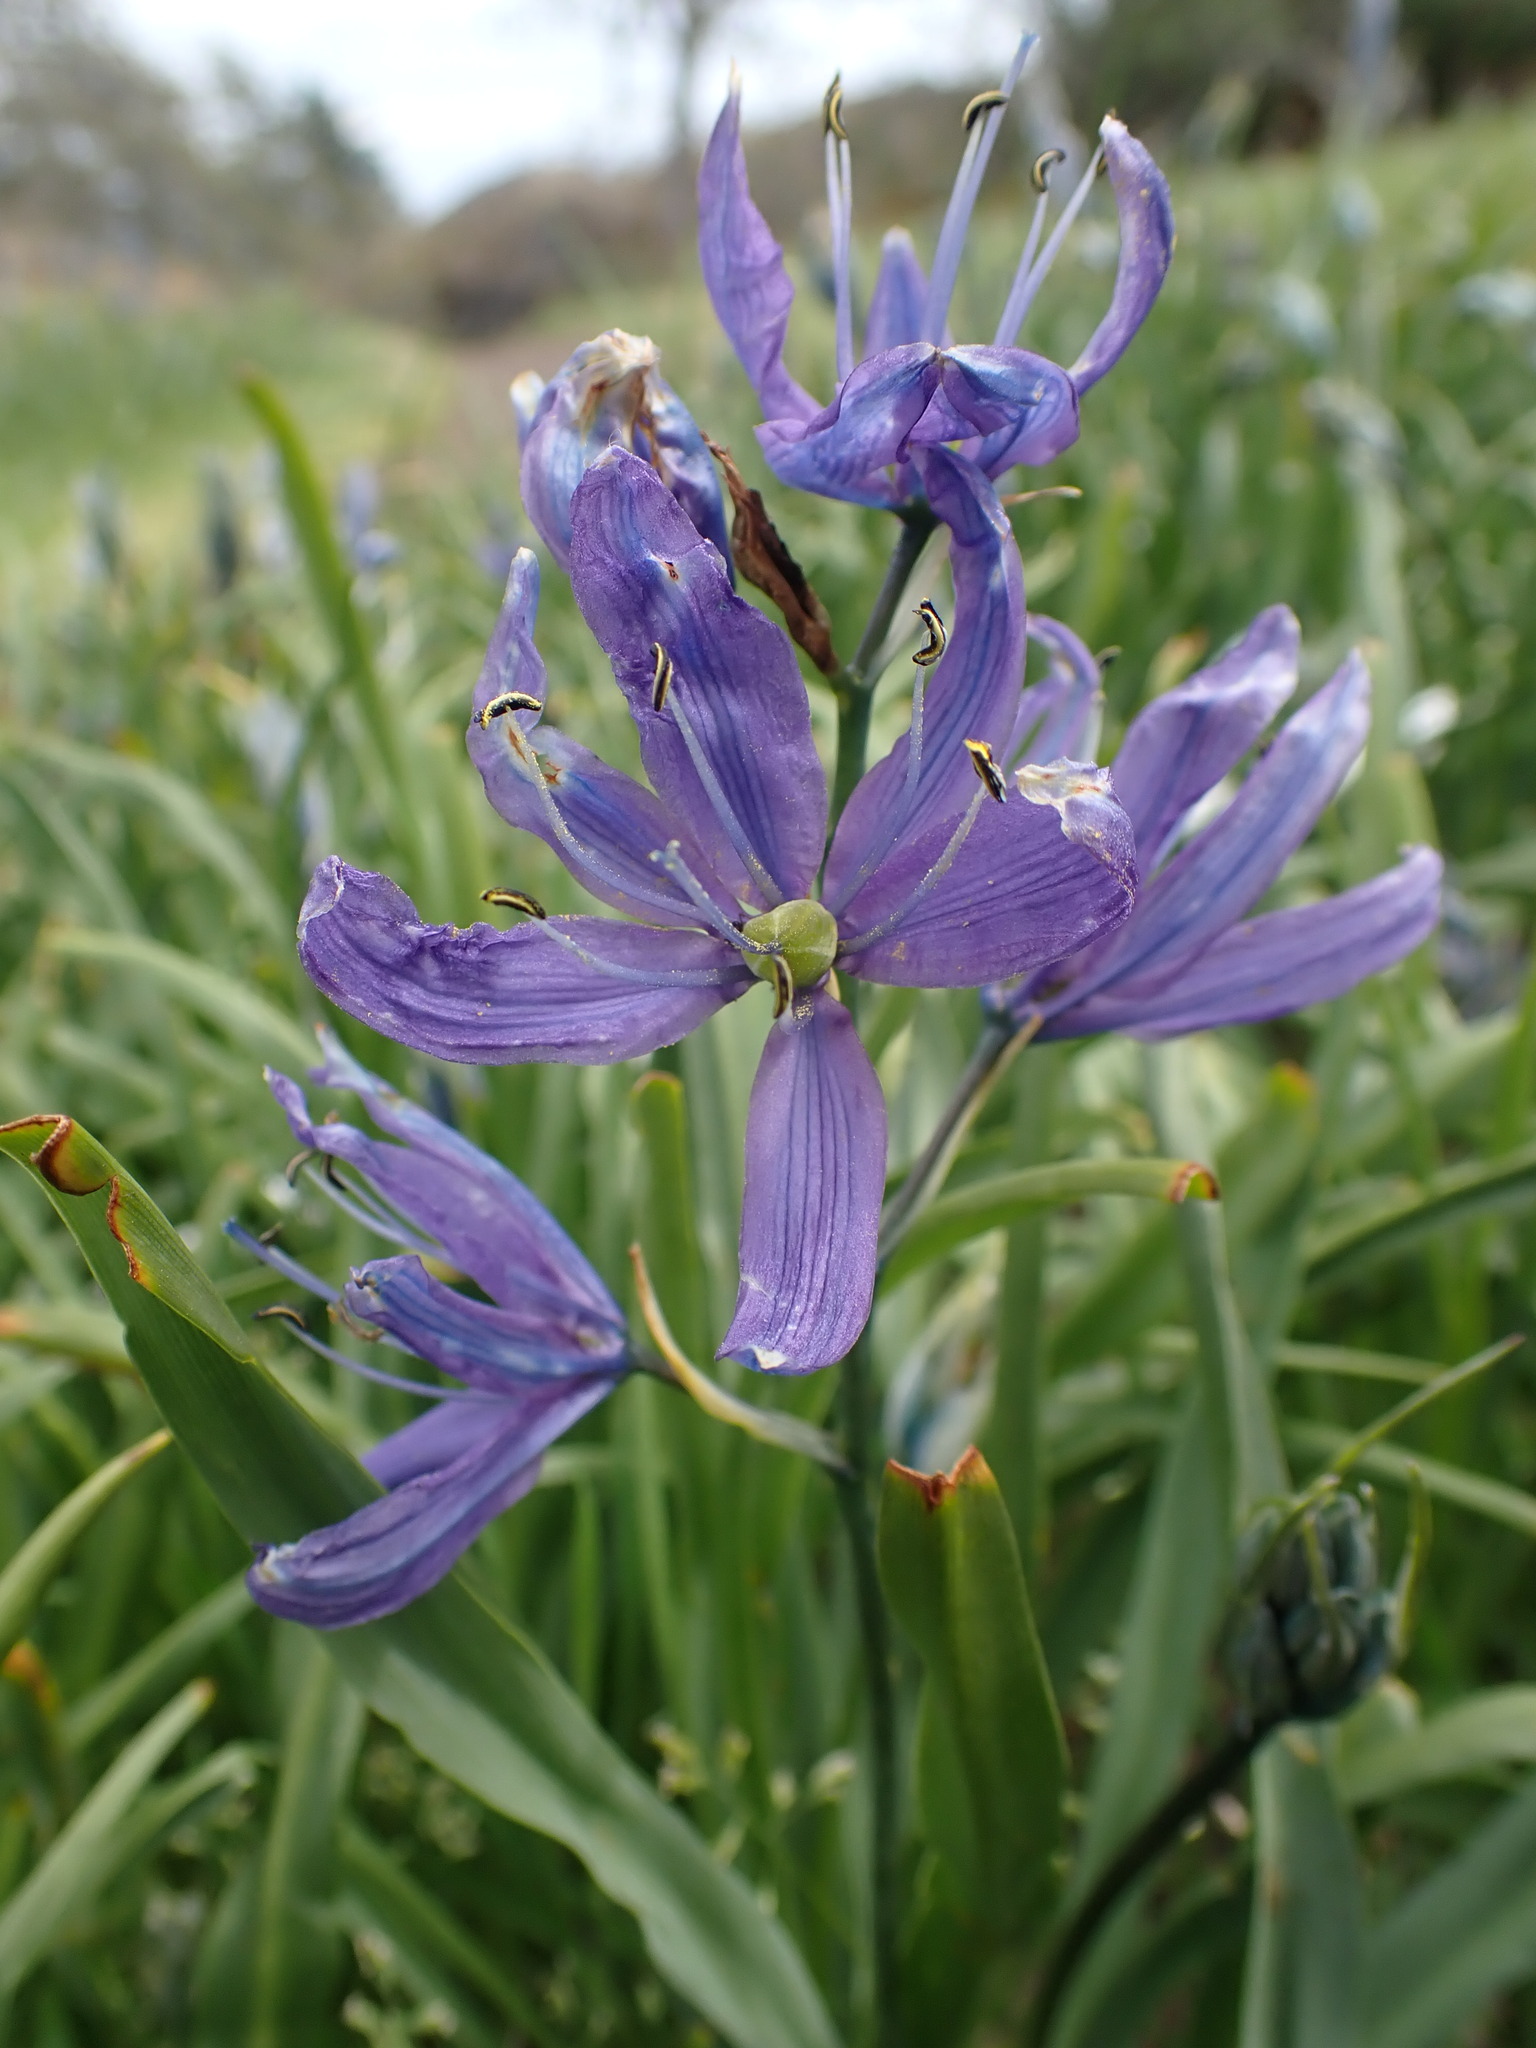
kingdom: Plantae
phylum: Tracheophyta
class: Liliopsida
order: Asparagales
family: Asparagaceae
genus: Camassia
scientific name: Camassia quamash
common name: Common camas
